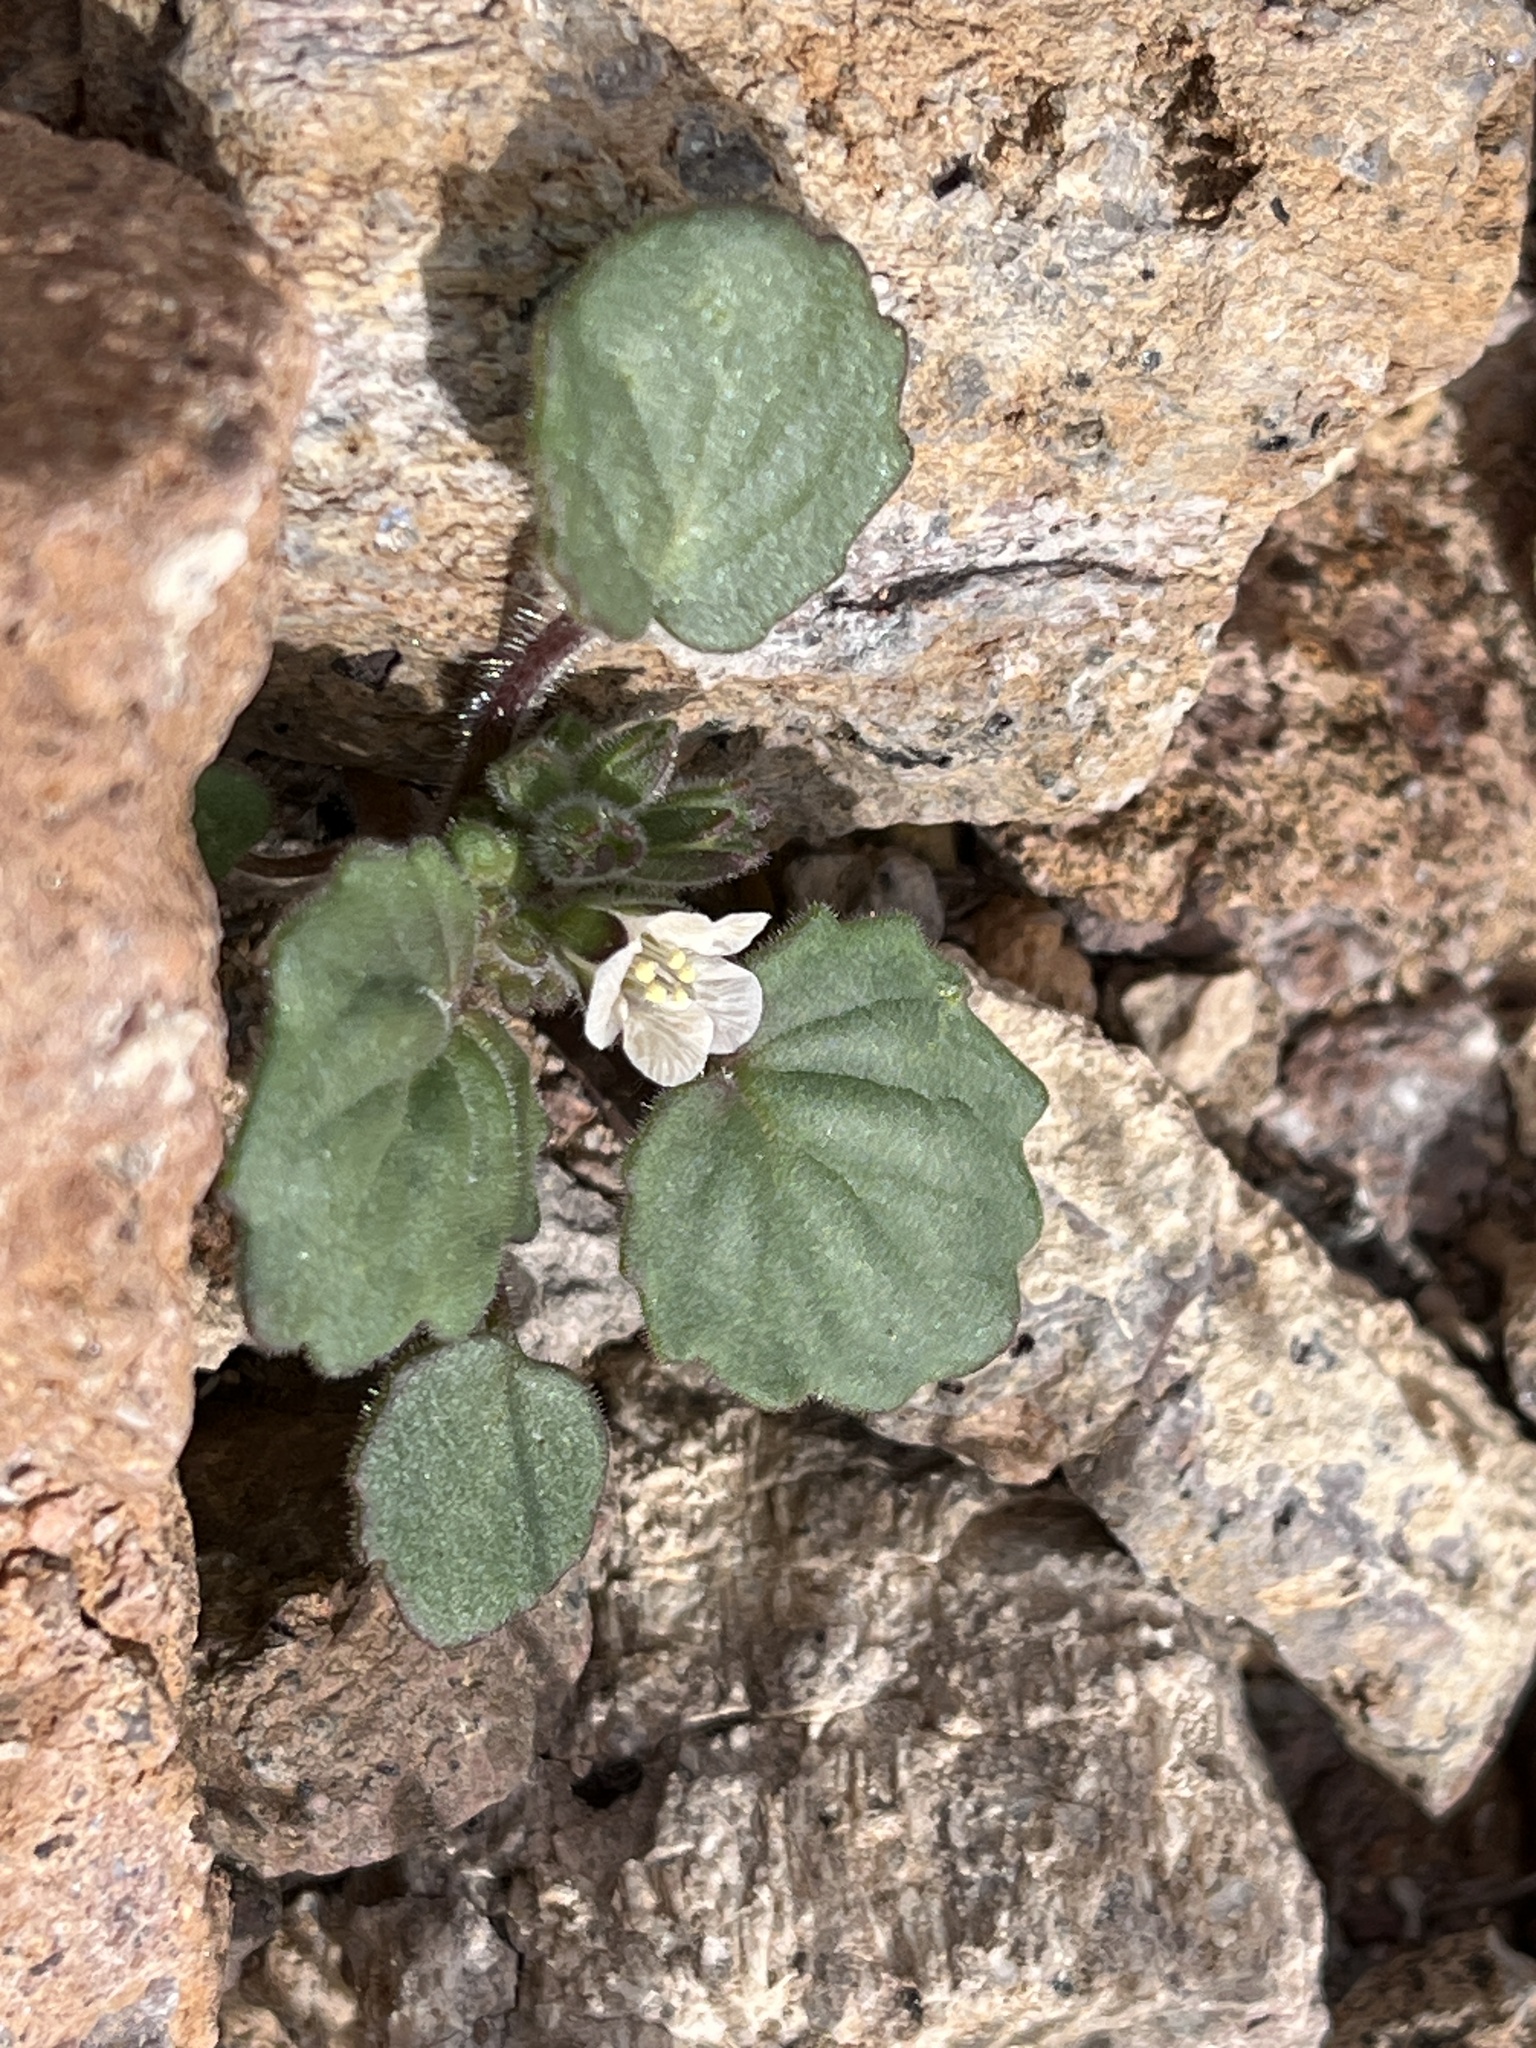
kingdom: Plantae
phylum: Tracheophyta
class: Magnoliopsida
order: Boraginales
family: Hydrophyllaceae
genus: Phacelia
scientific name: Phacelia neglecta
